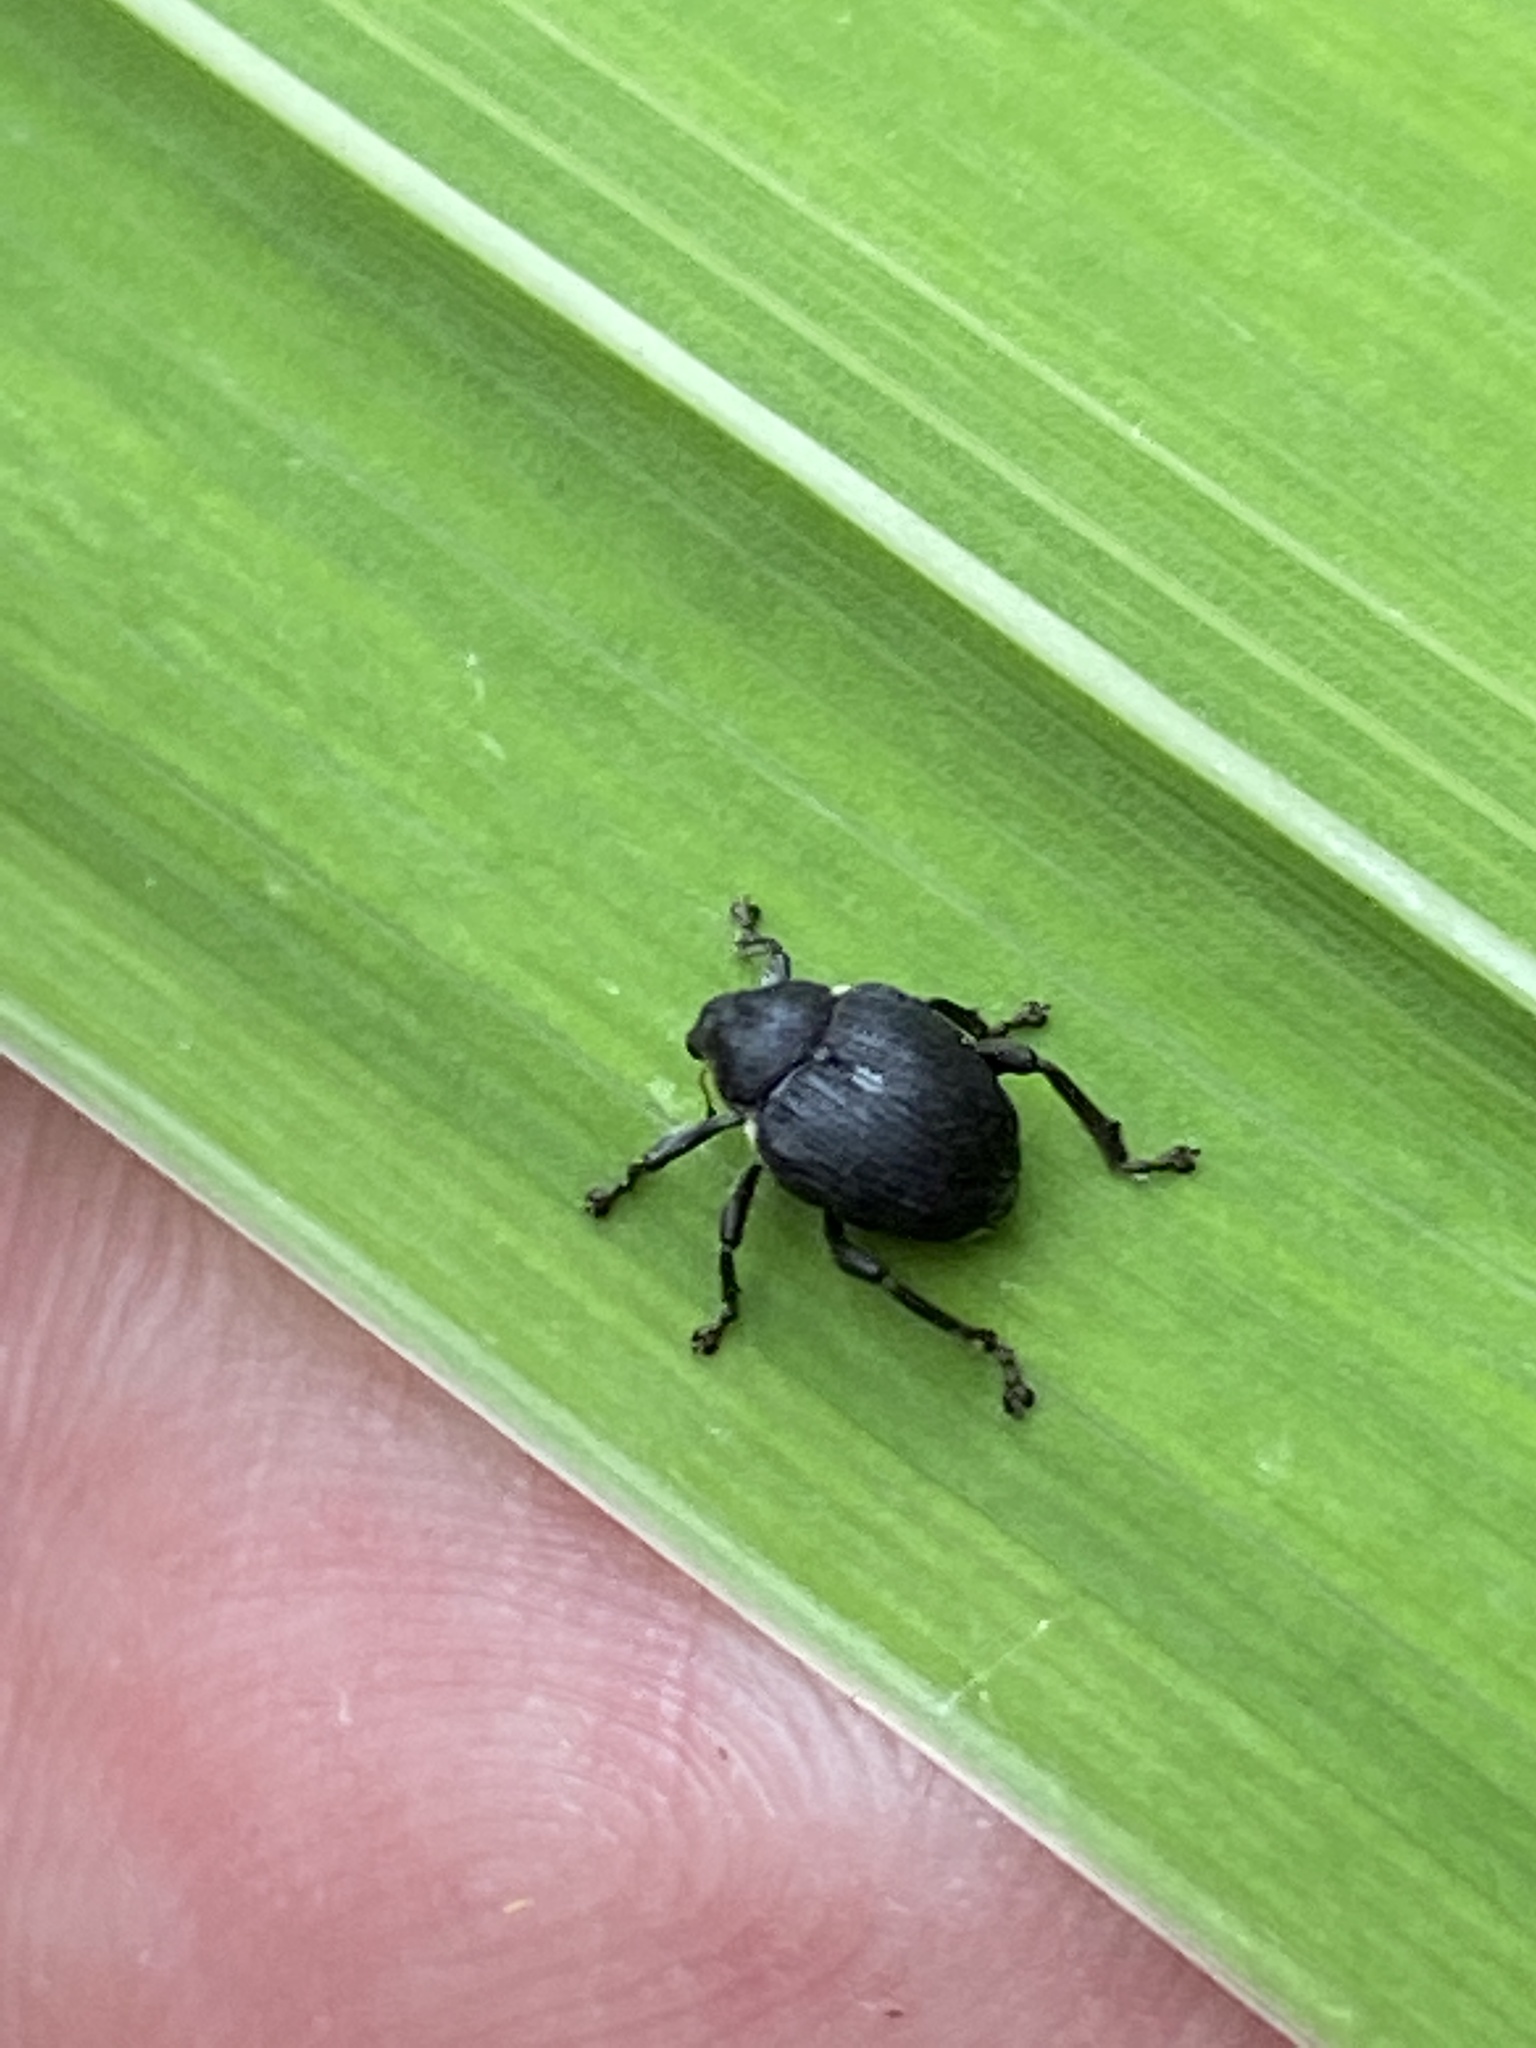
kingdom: Animalia
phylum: Arthropoda
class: Insecta
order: Coleoptera
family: Curculionidae
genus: Mononychus
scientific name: Mononychus punctumalbum
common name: Iris weevil
